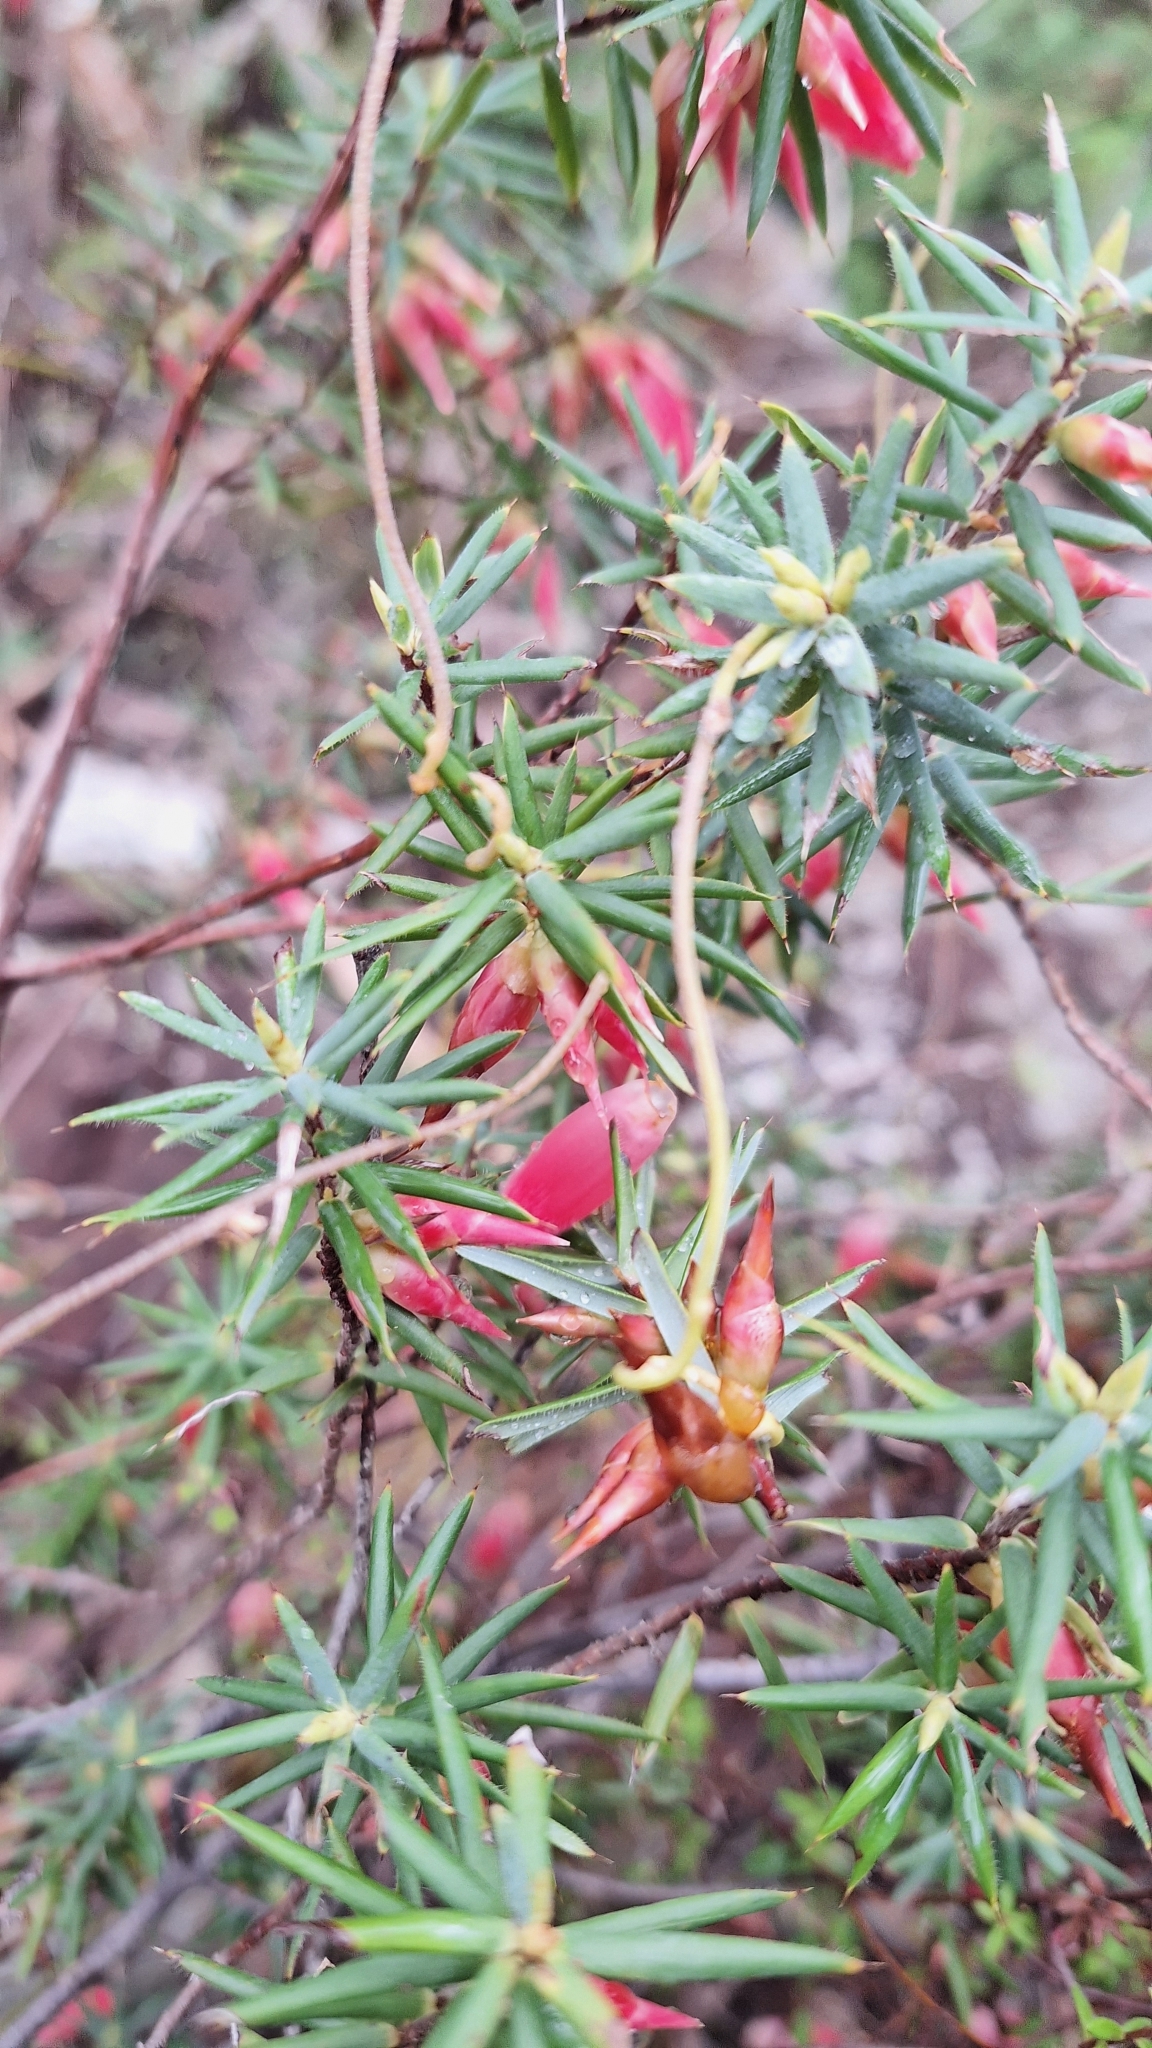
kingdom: Plantae
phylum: Tracheophyta
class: Magnoliopsida
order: Ericales
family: Ericaceae
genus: Stenanthera
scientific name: Stenanthera conostephioides
